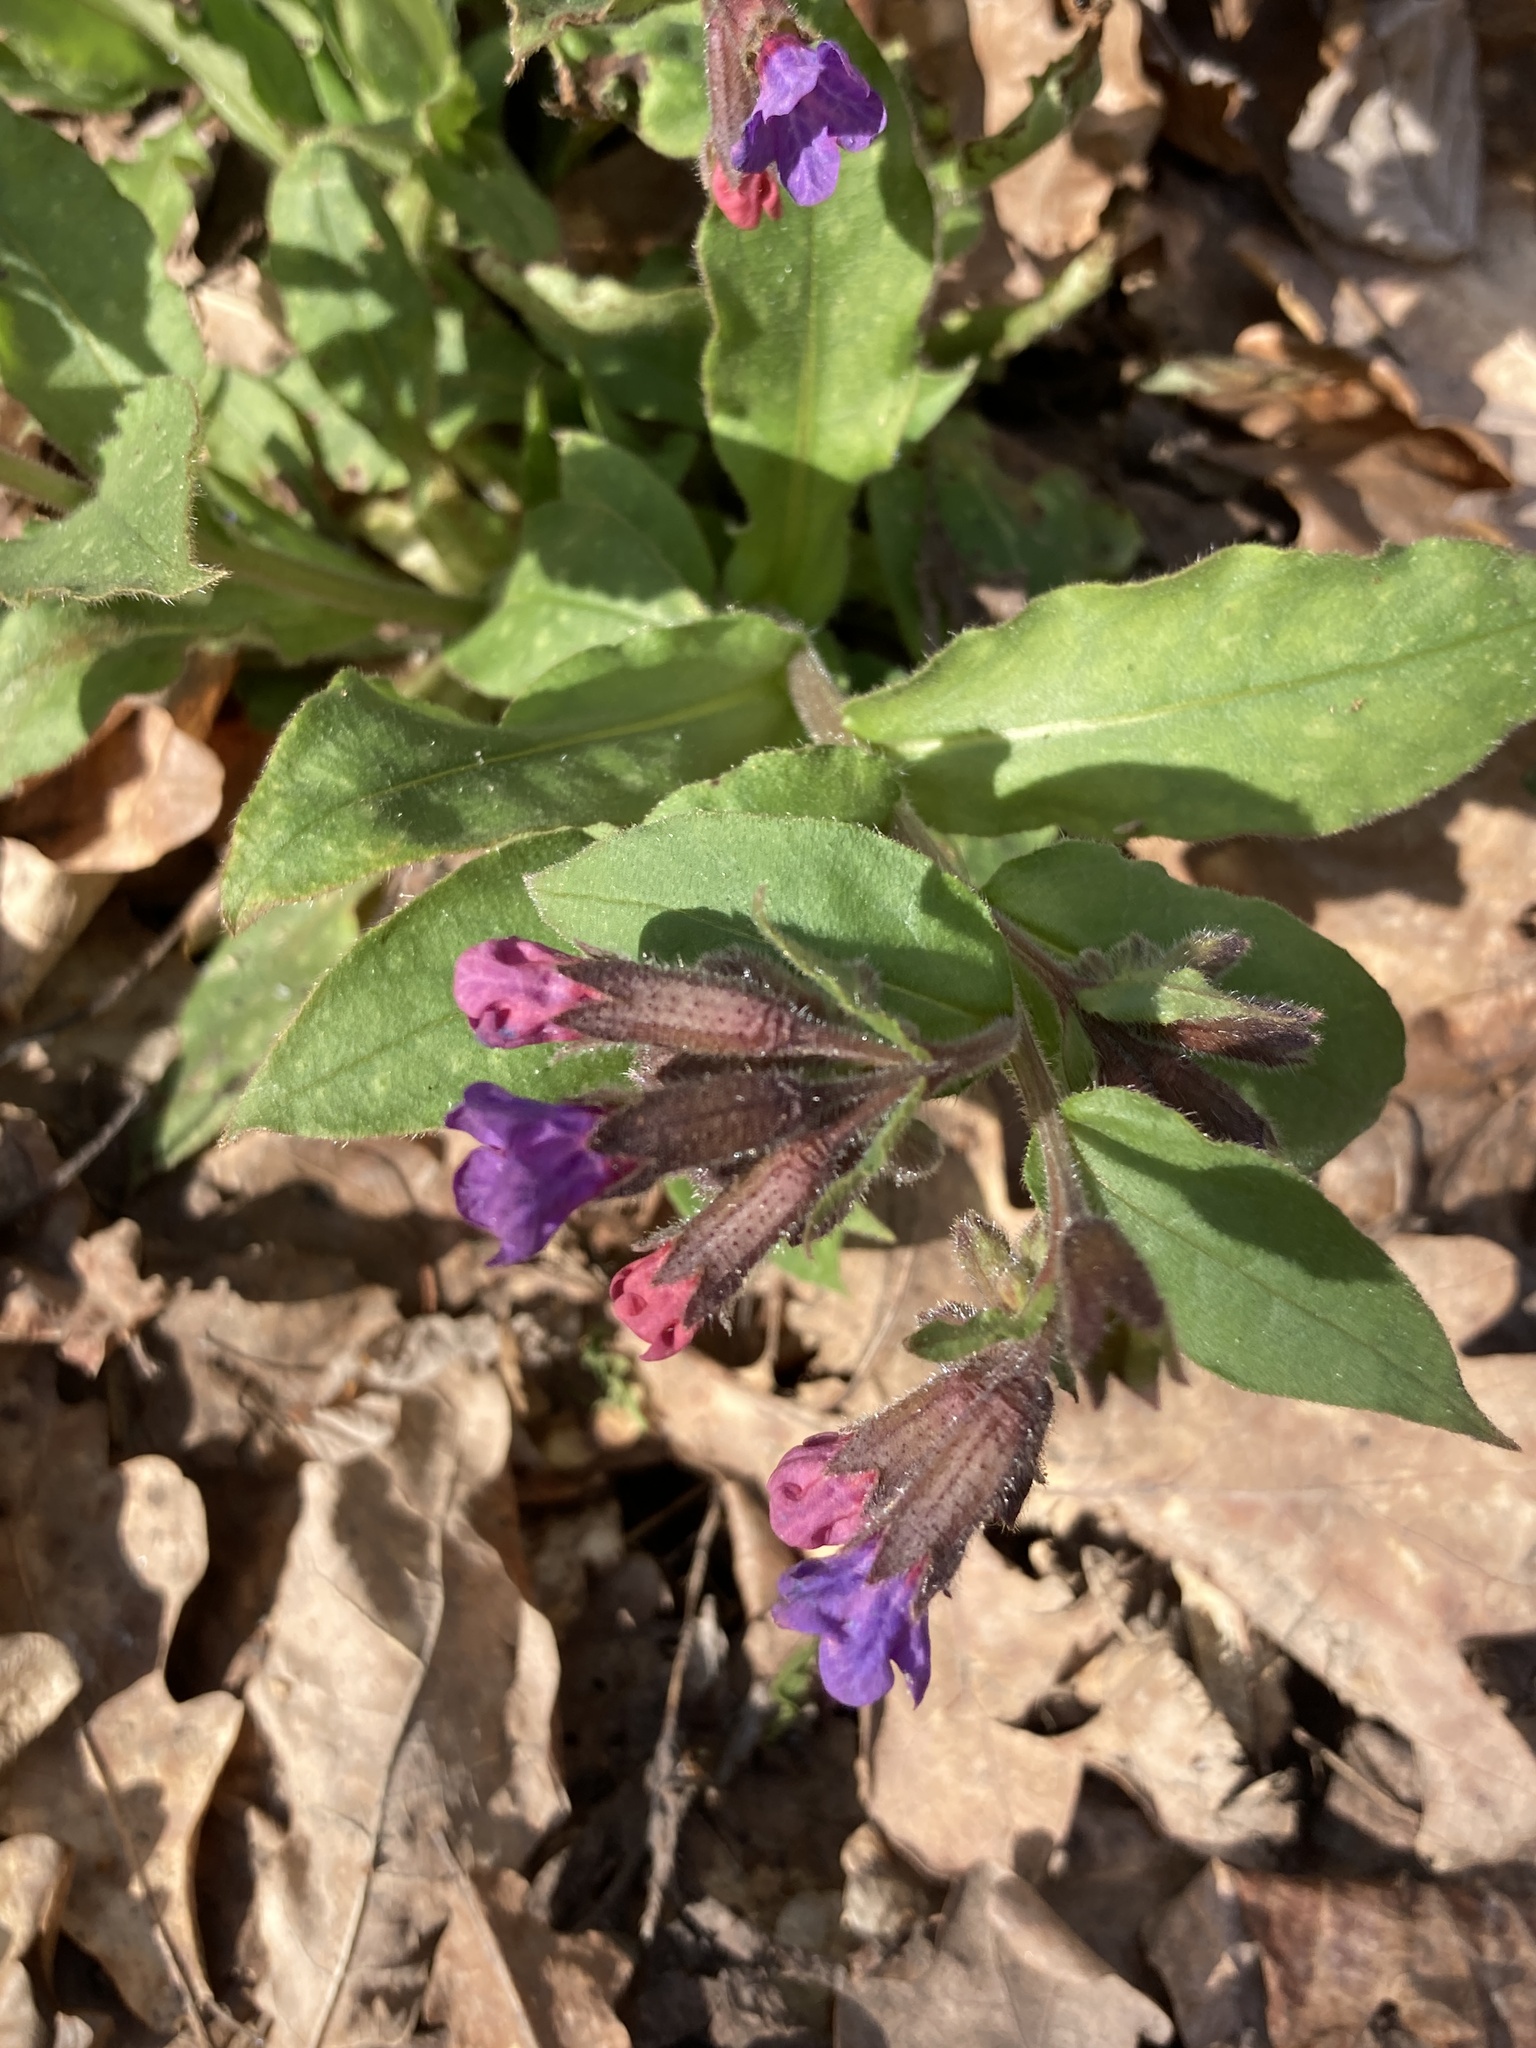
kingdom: Plantae
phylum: Tracheophyta
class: Magnoliopsida
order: Boraginales
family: Boraginaceae
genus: Pulmonaria
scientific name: Pulmonaria obscura
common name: Suffolk lungwort
